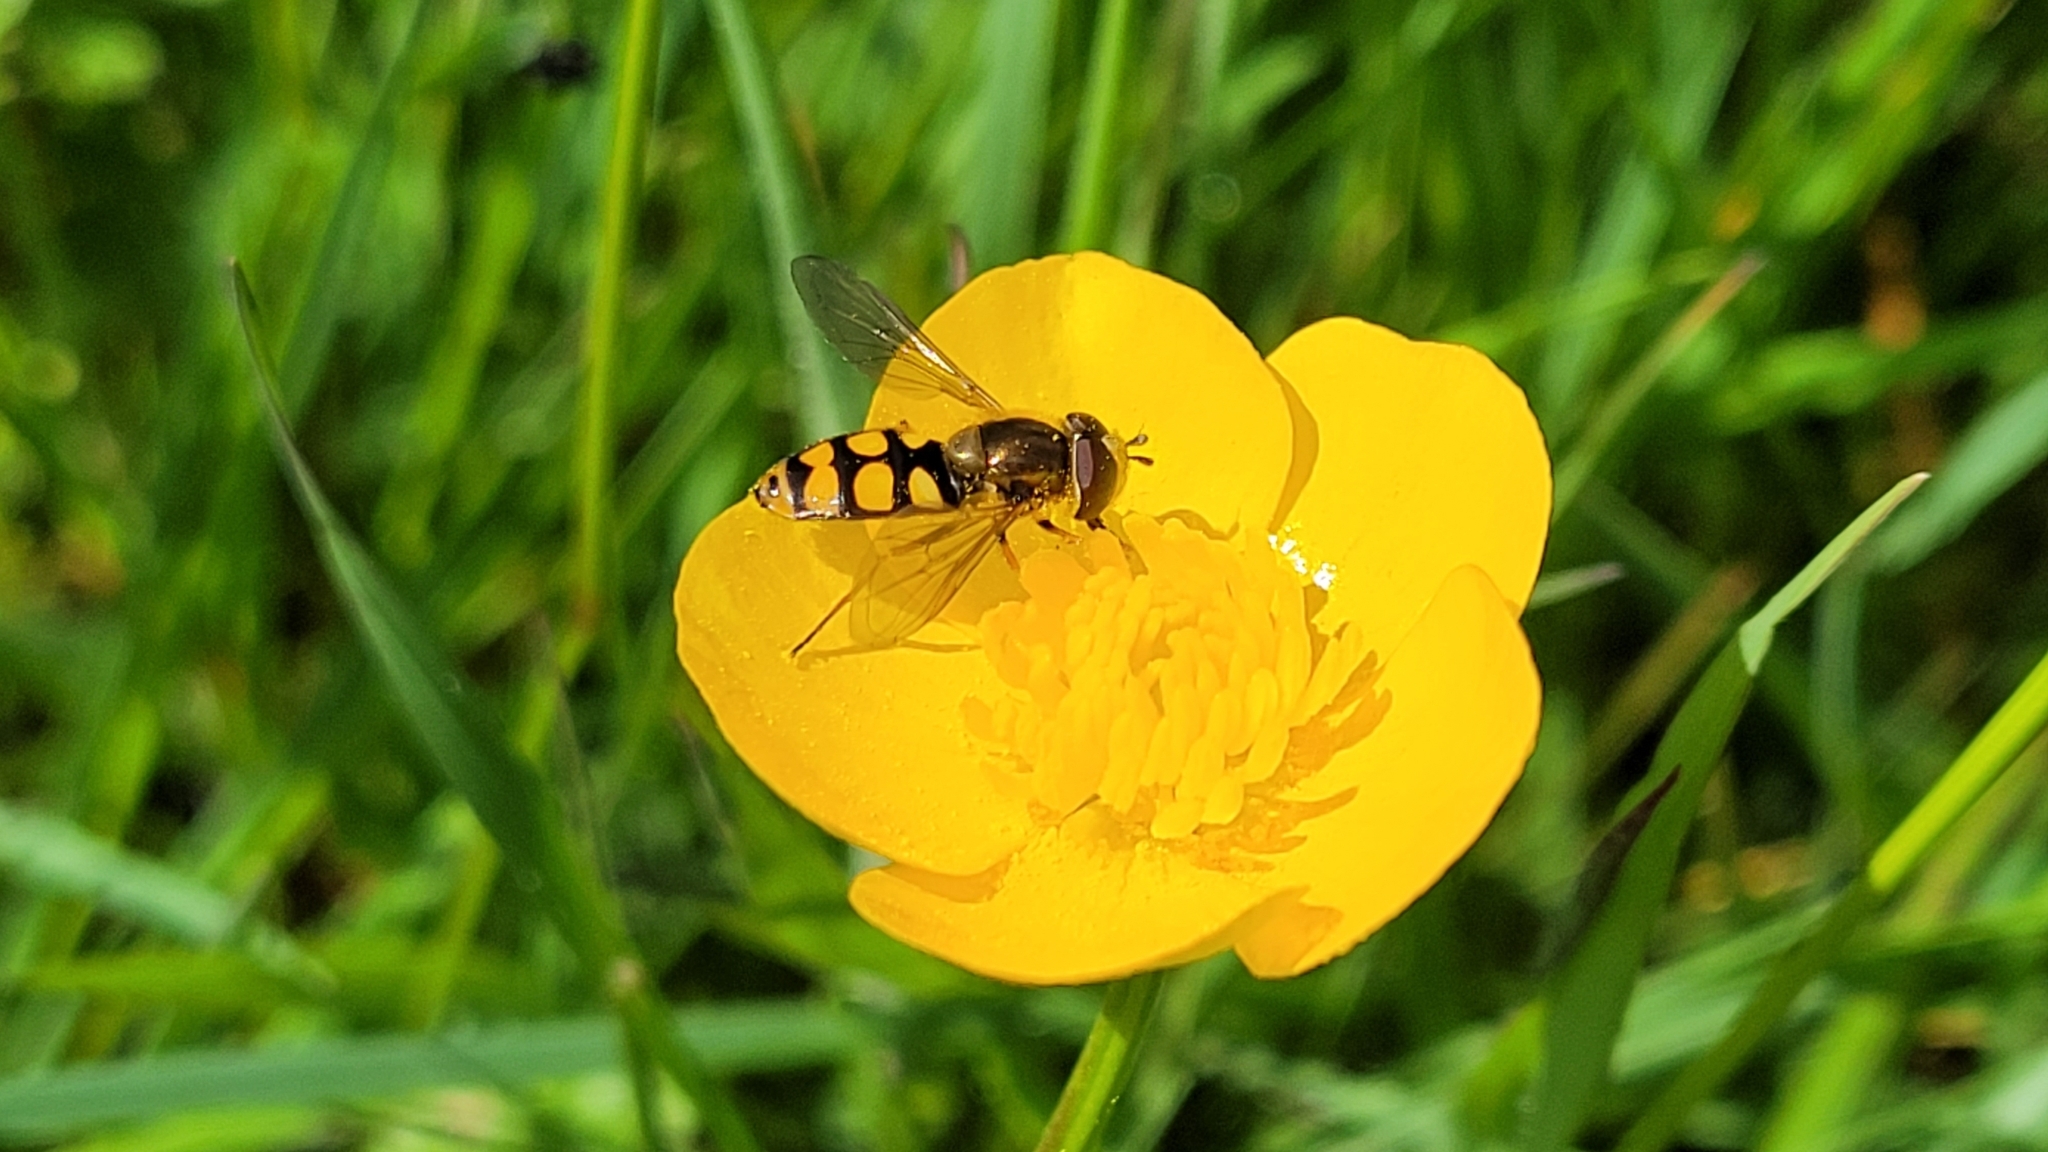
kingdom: Animalia
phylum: Arthropoda
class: Insecta
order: Diptera
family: Syrphidae
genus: Eupeodes
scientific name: Eupeodes
